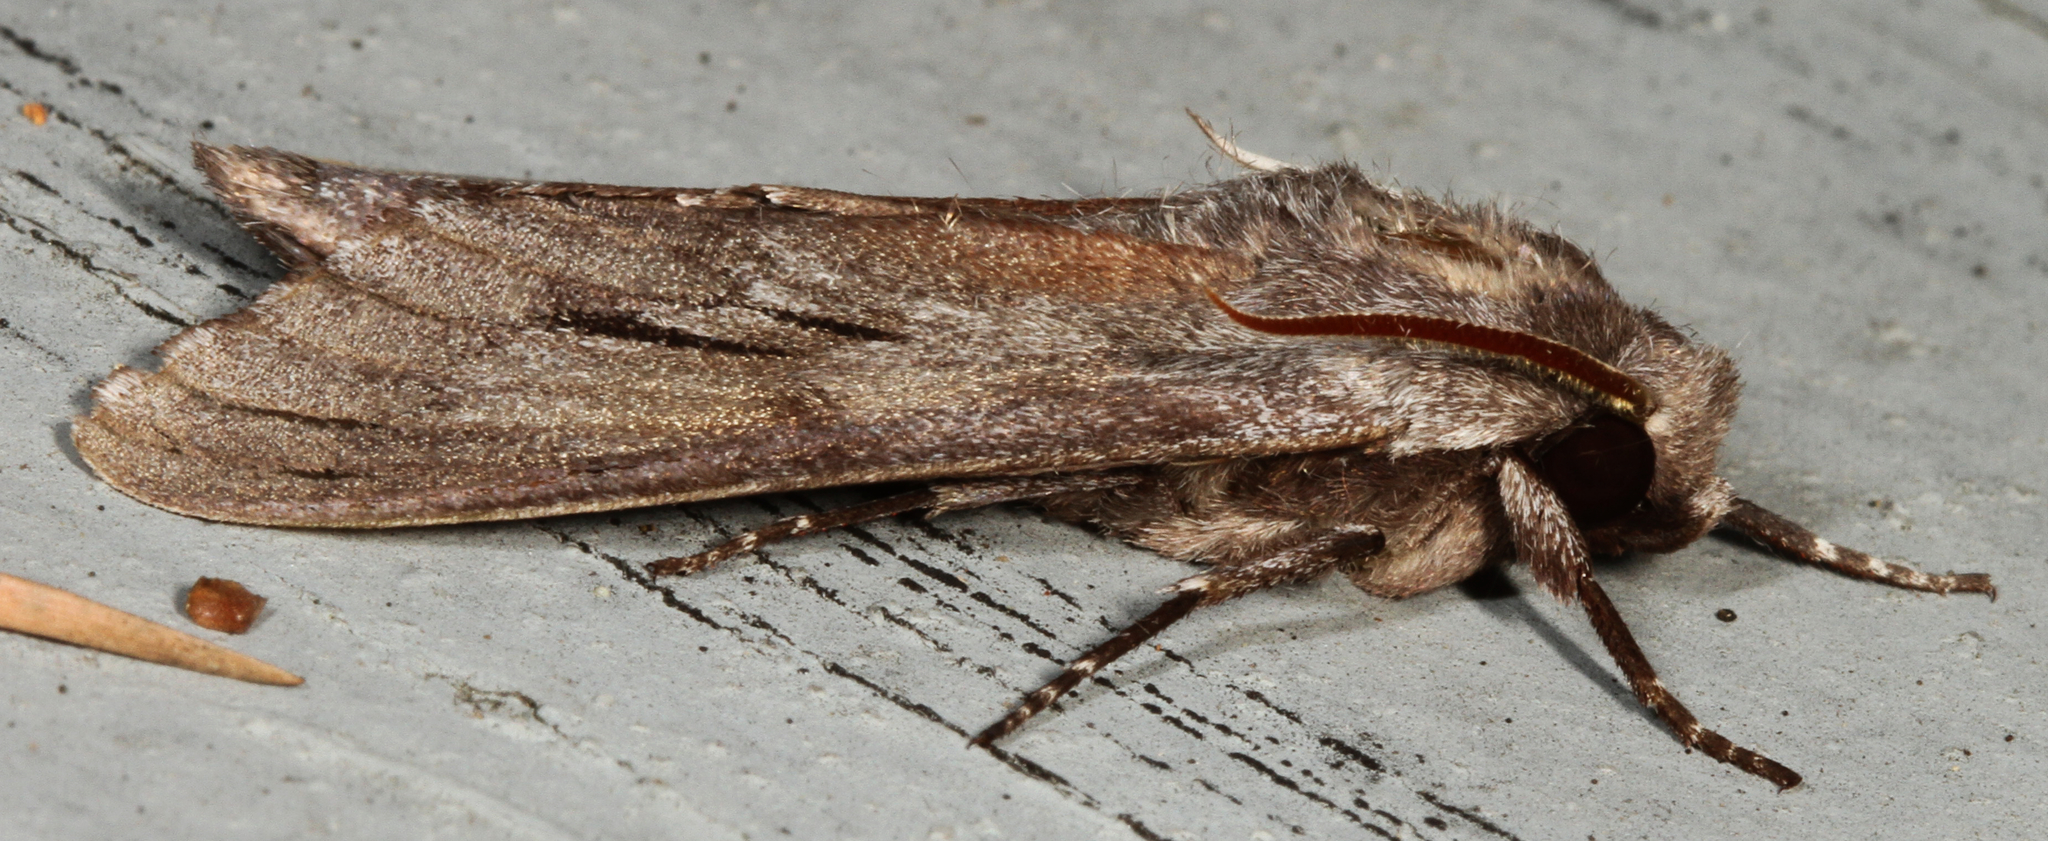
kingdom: Animalia
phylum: Arthropoda
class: Insecta
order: Lepidoptera
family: Sphingidae
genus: Lapara
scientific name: Lapara coniferarum
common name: Southern pine sphinx
